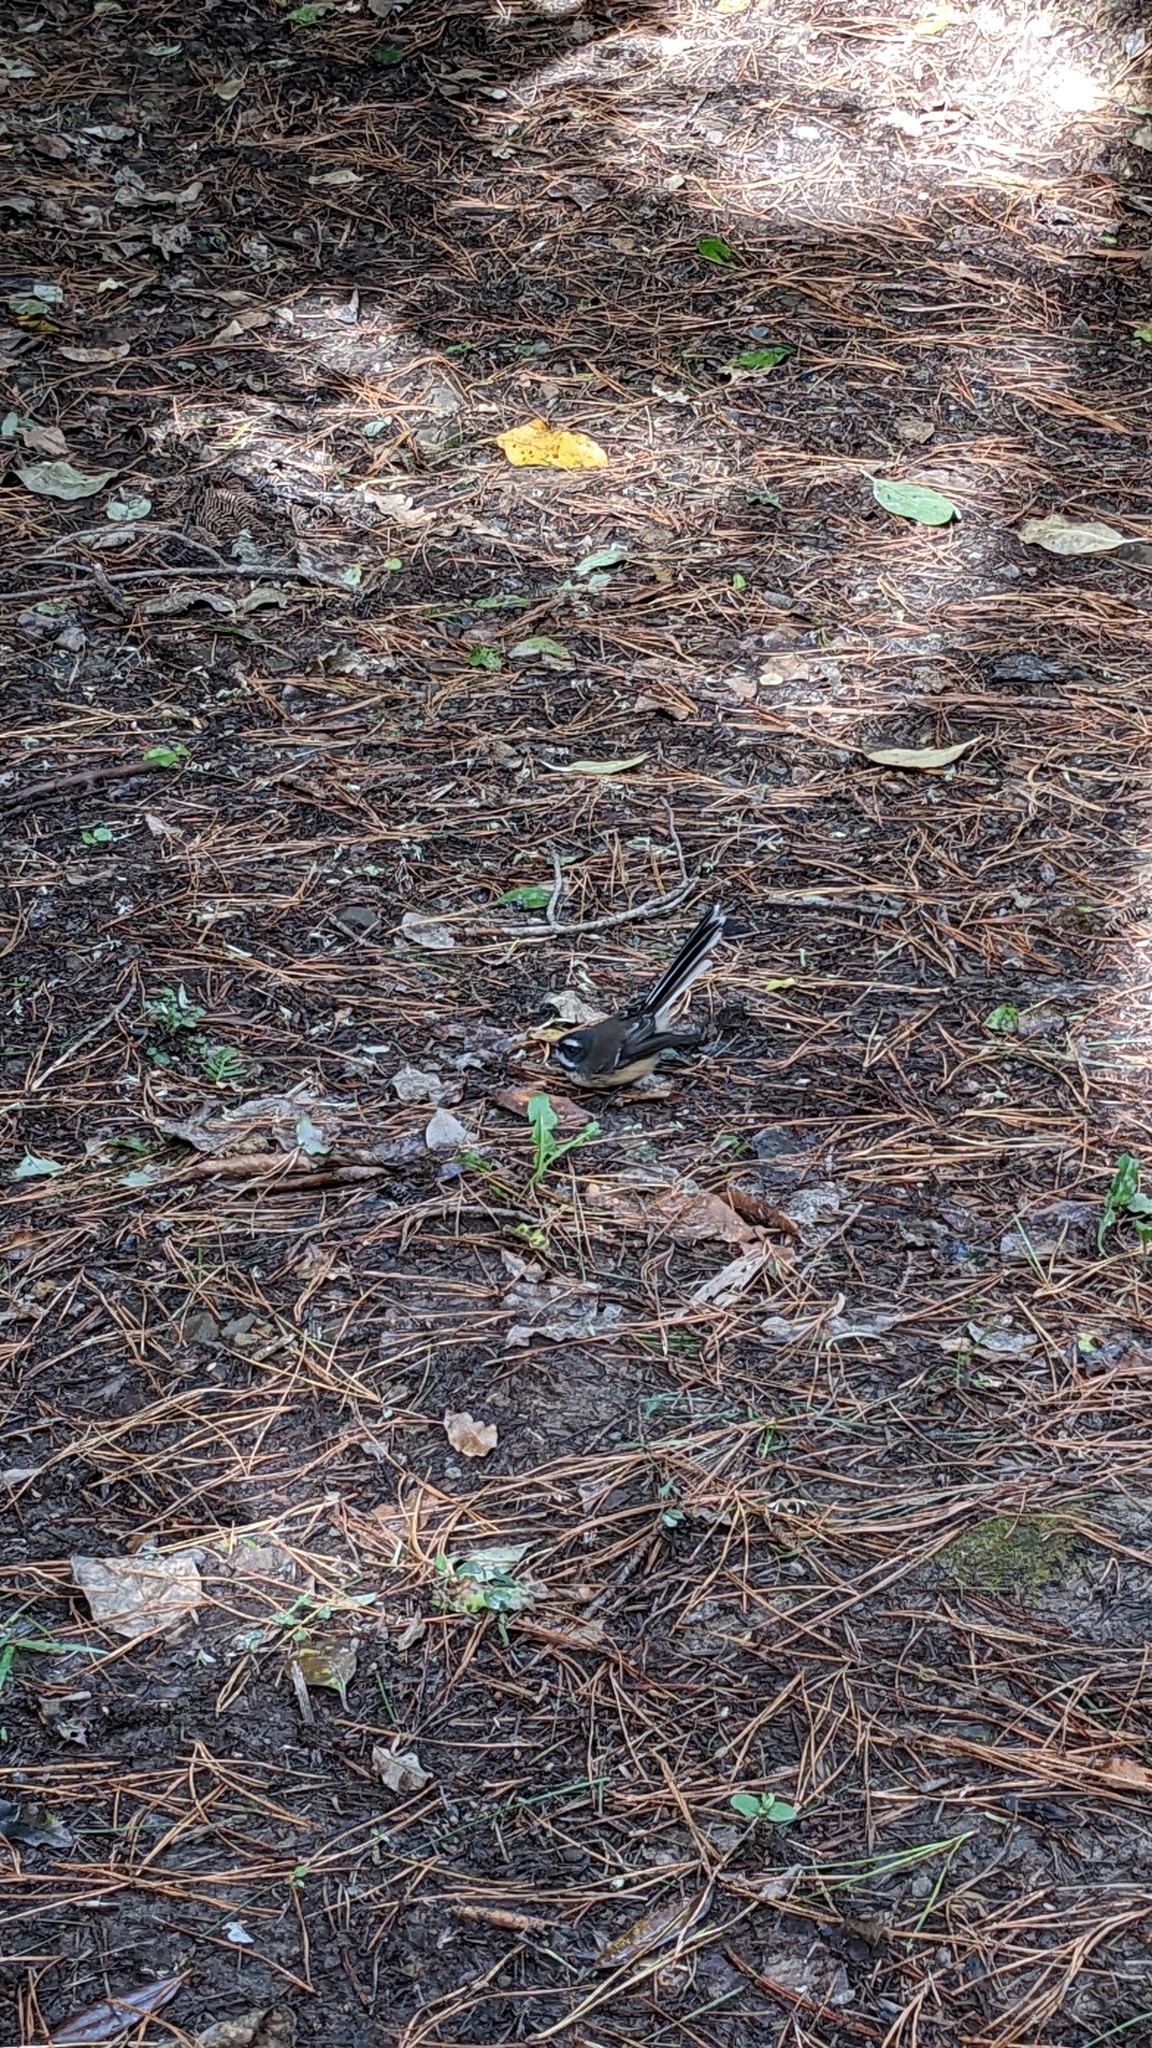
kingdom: Animalia
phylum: Chordata
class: Aves
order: Passeriformes
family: Rhipiduridae
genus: Rhipidura
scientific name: Rhipidura fuliginosa
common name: New zealand fantail
